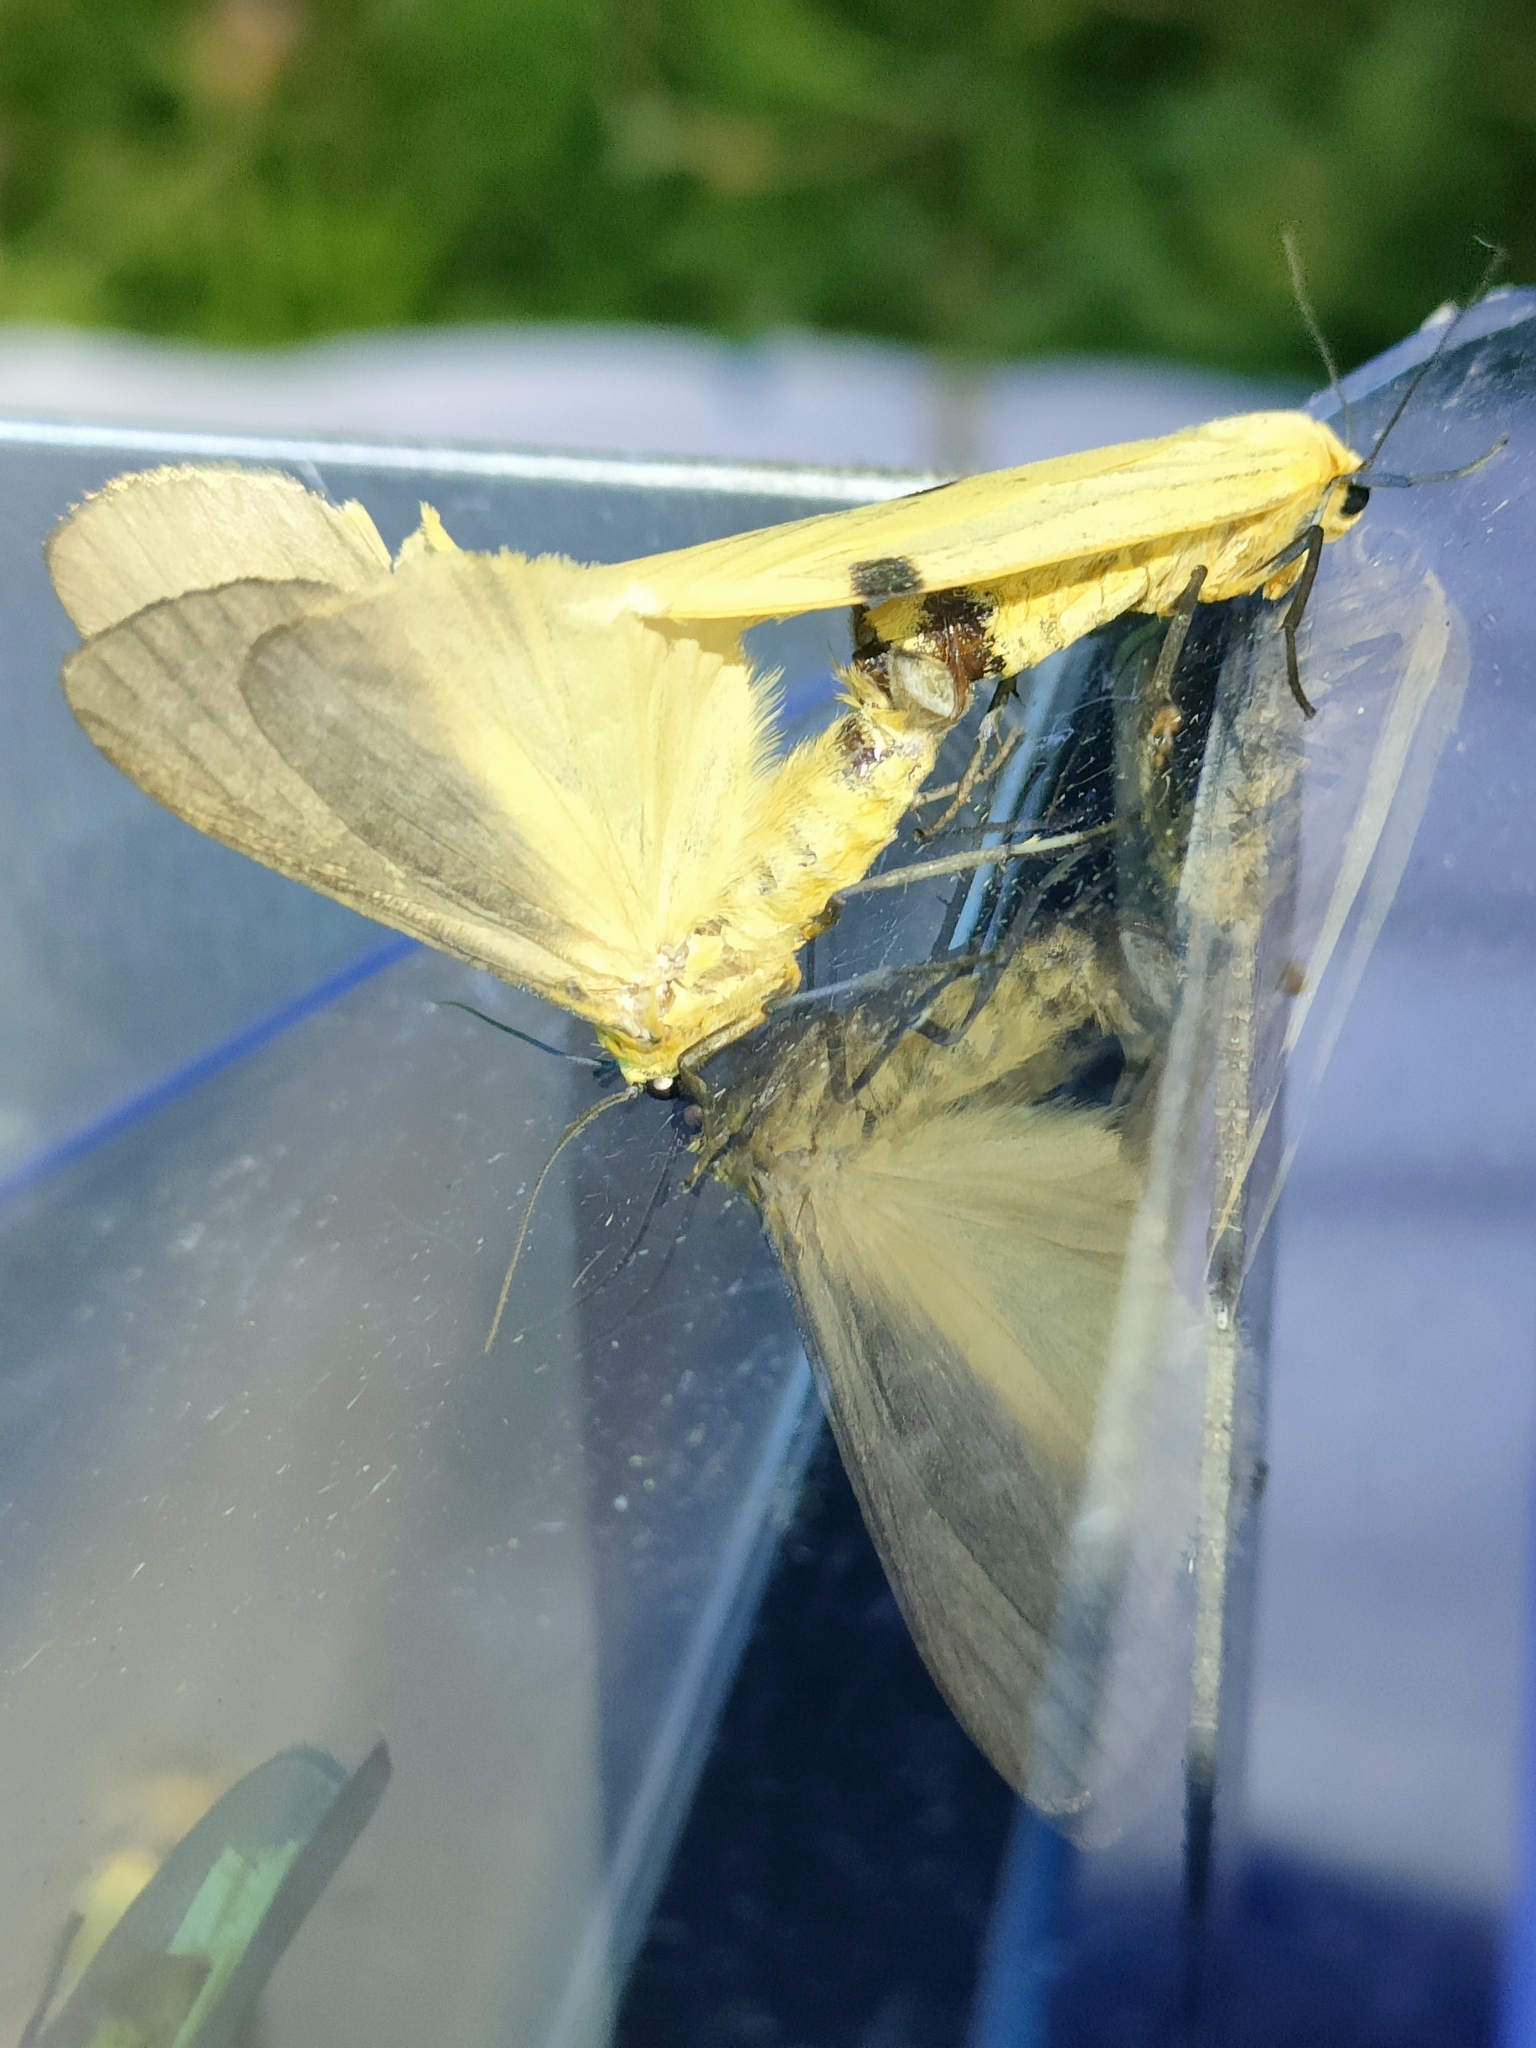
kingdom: Animalia
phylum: Arthropoda
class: Insecta
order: Lepidoptera
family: Erebidae
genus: Lithosia
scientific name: Lithosia quadra
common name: Four-spotted footman
